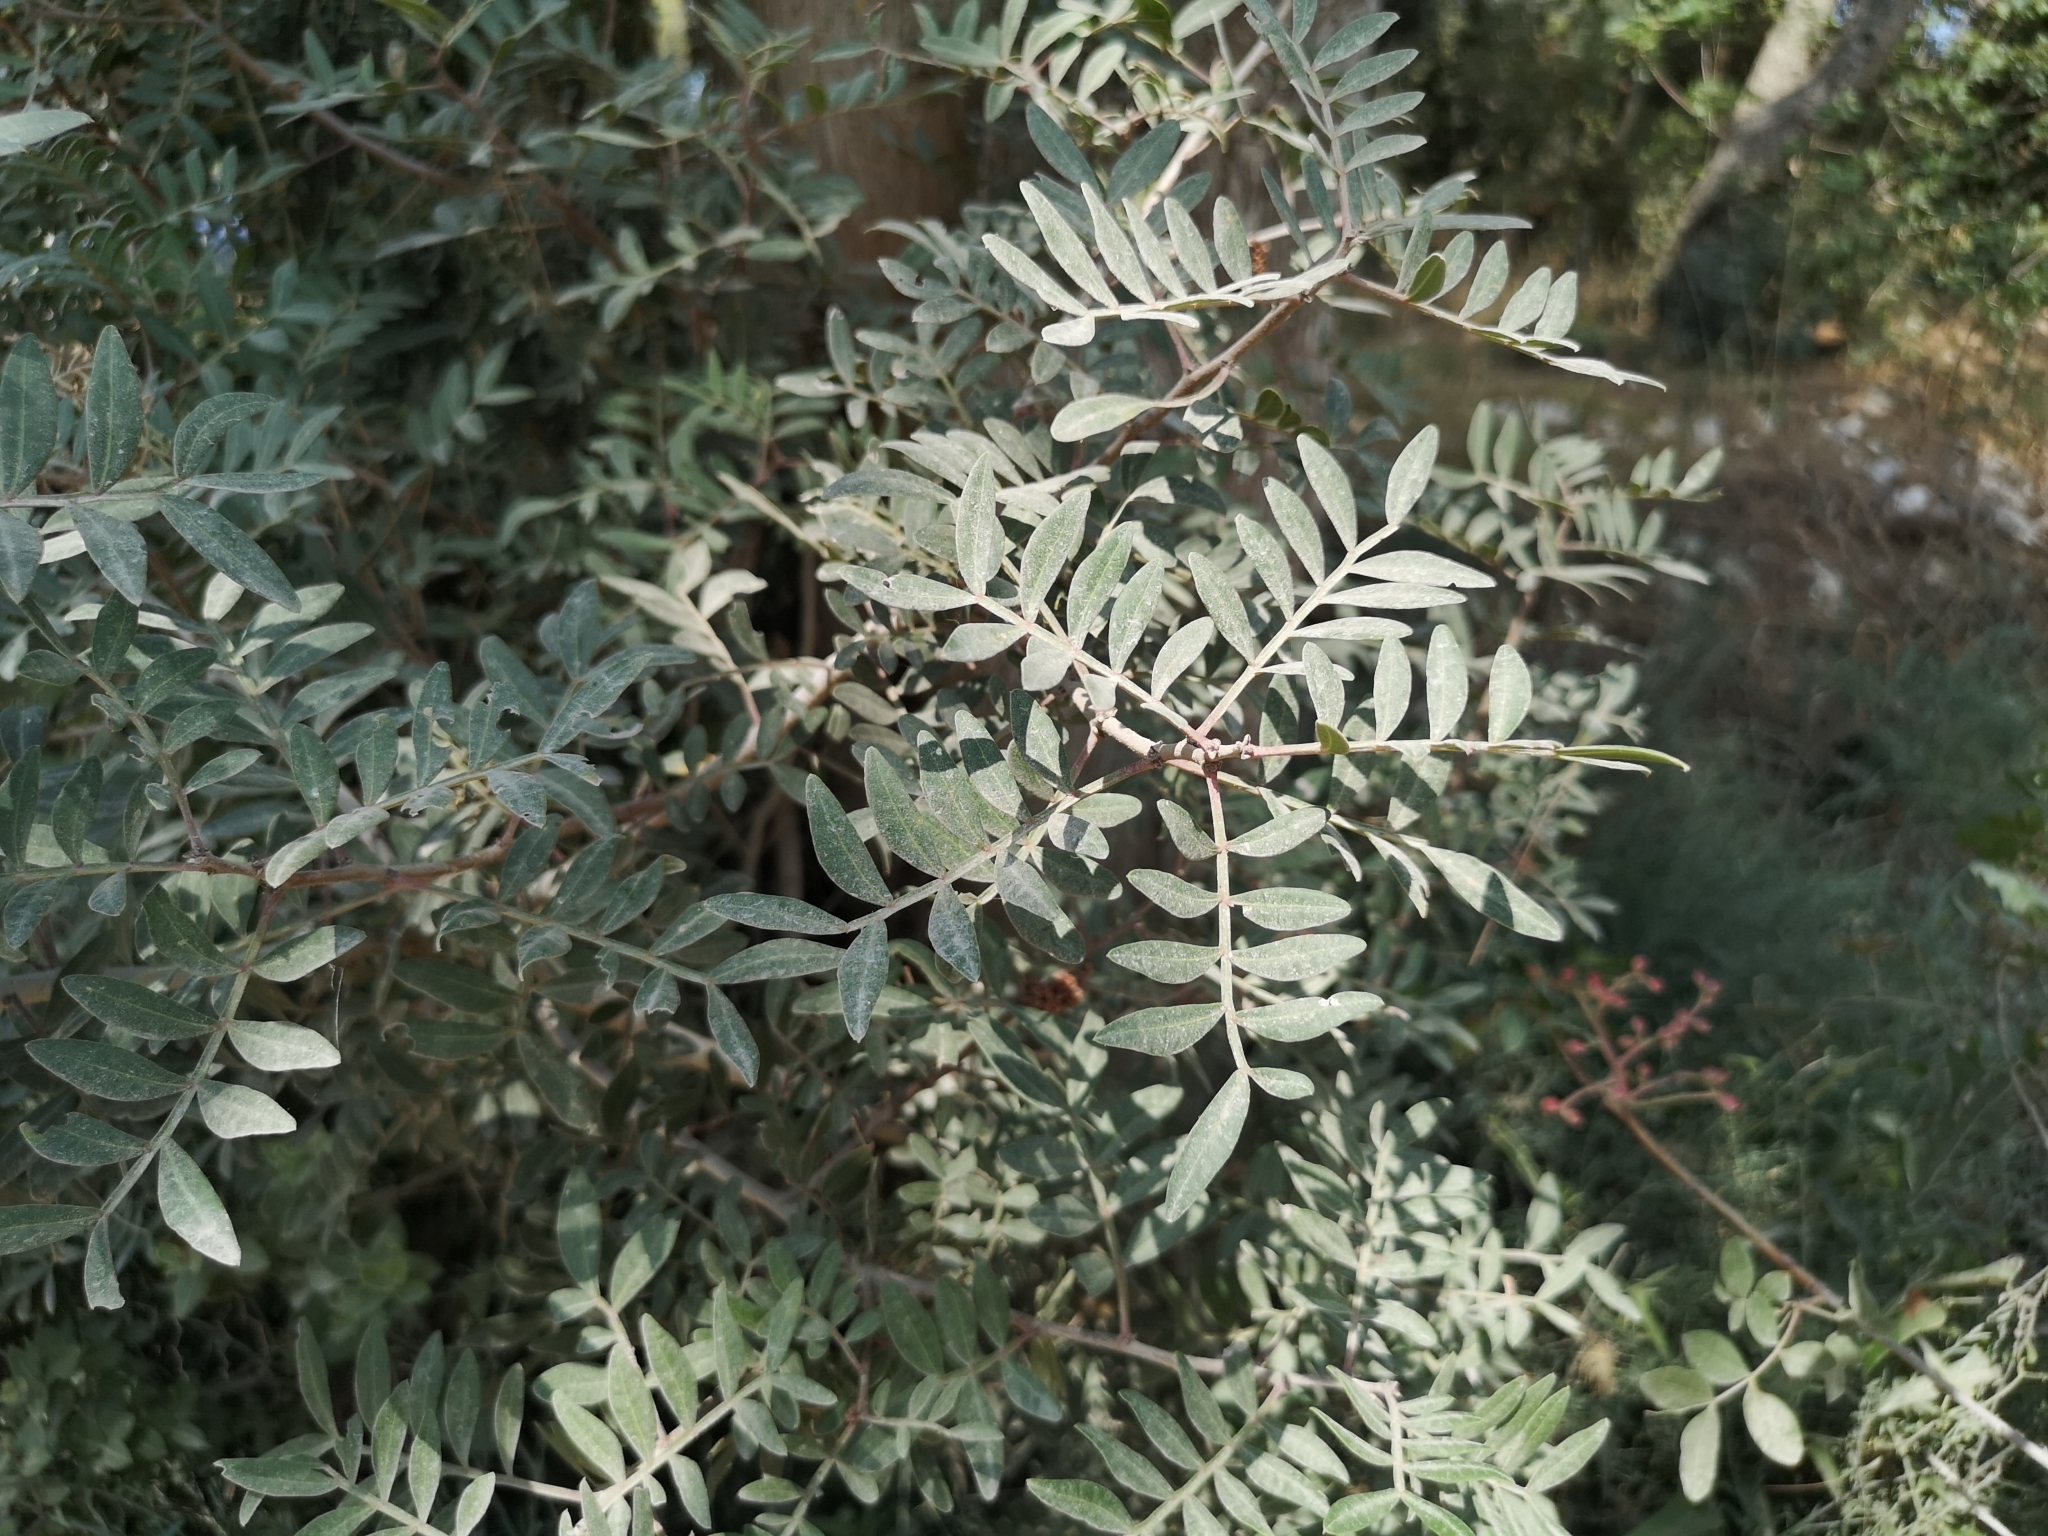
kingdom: Plantae
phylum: Tracheophyta
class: Magnoliopsida
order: Sapindales
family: Anacardiaceae
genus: Pistacia
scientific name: Pistacia lentiscus
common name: Lentisk
